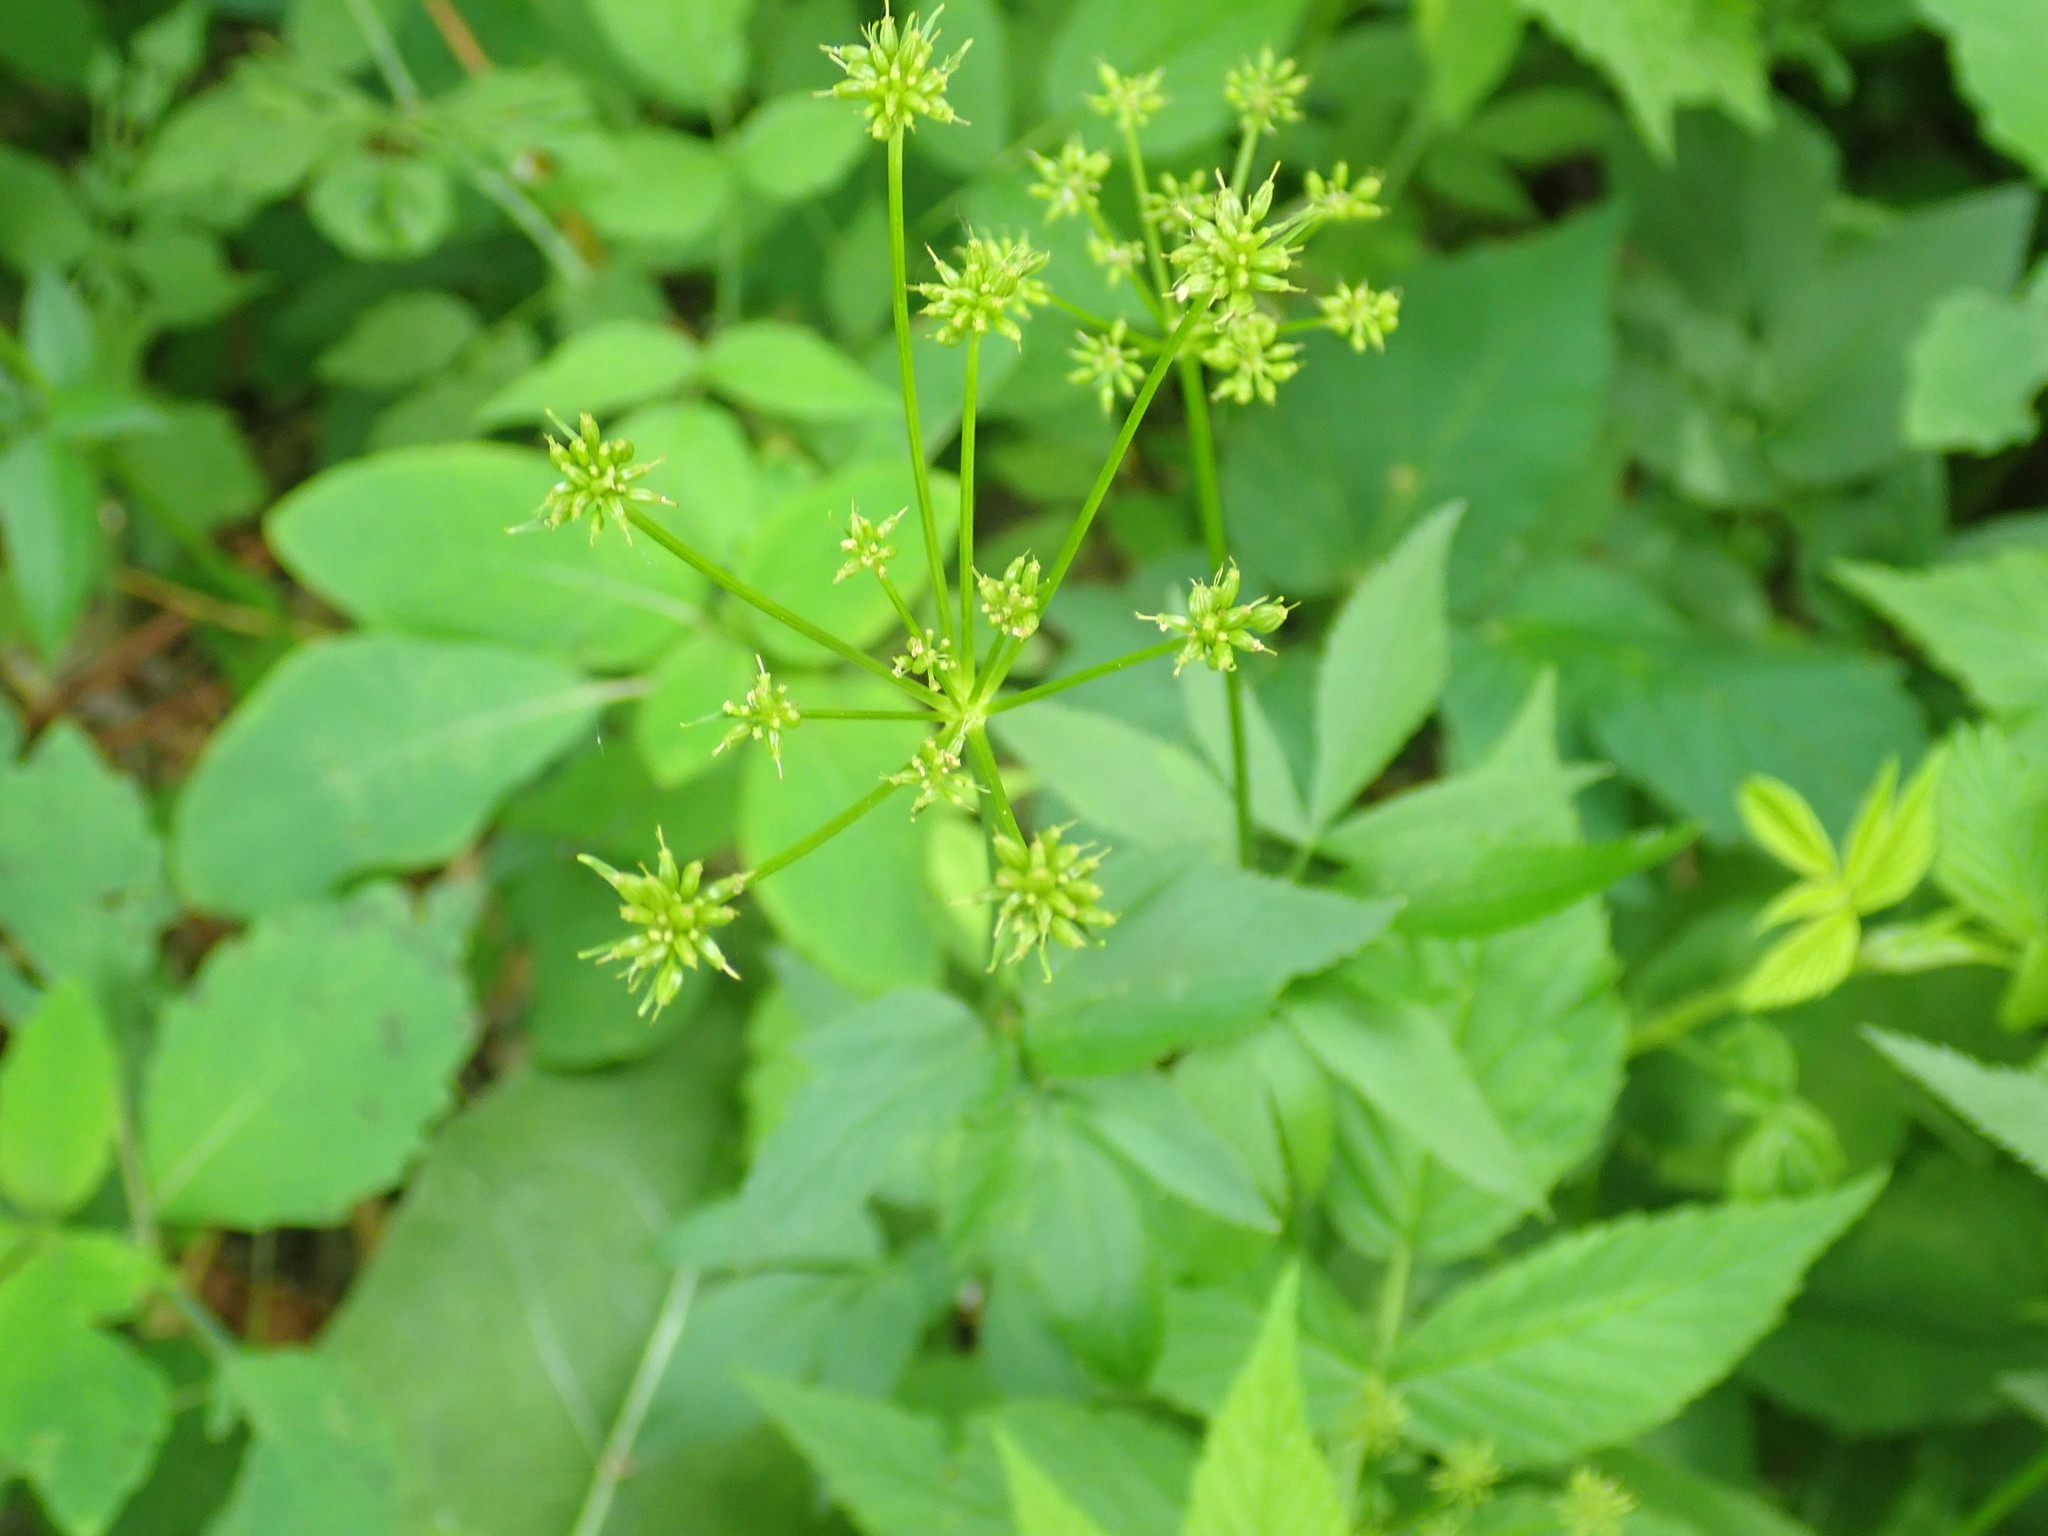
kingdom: Plantae
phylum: Tracheophyta
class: Magnoliopsida
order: Apiales
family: Apiaceae
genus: Zizia
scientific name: Zizia aurea
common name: Golden alexanders
